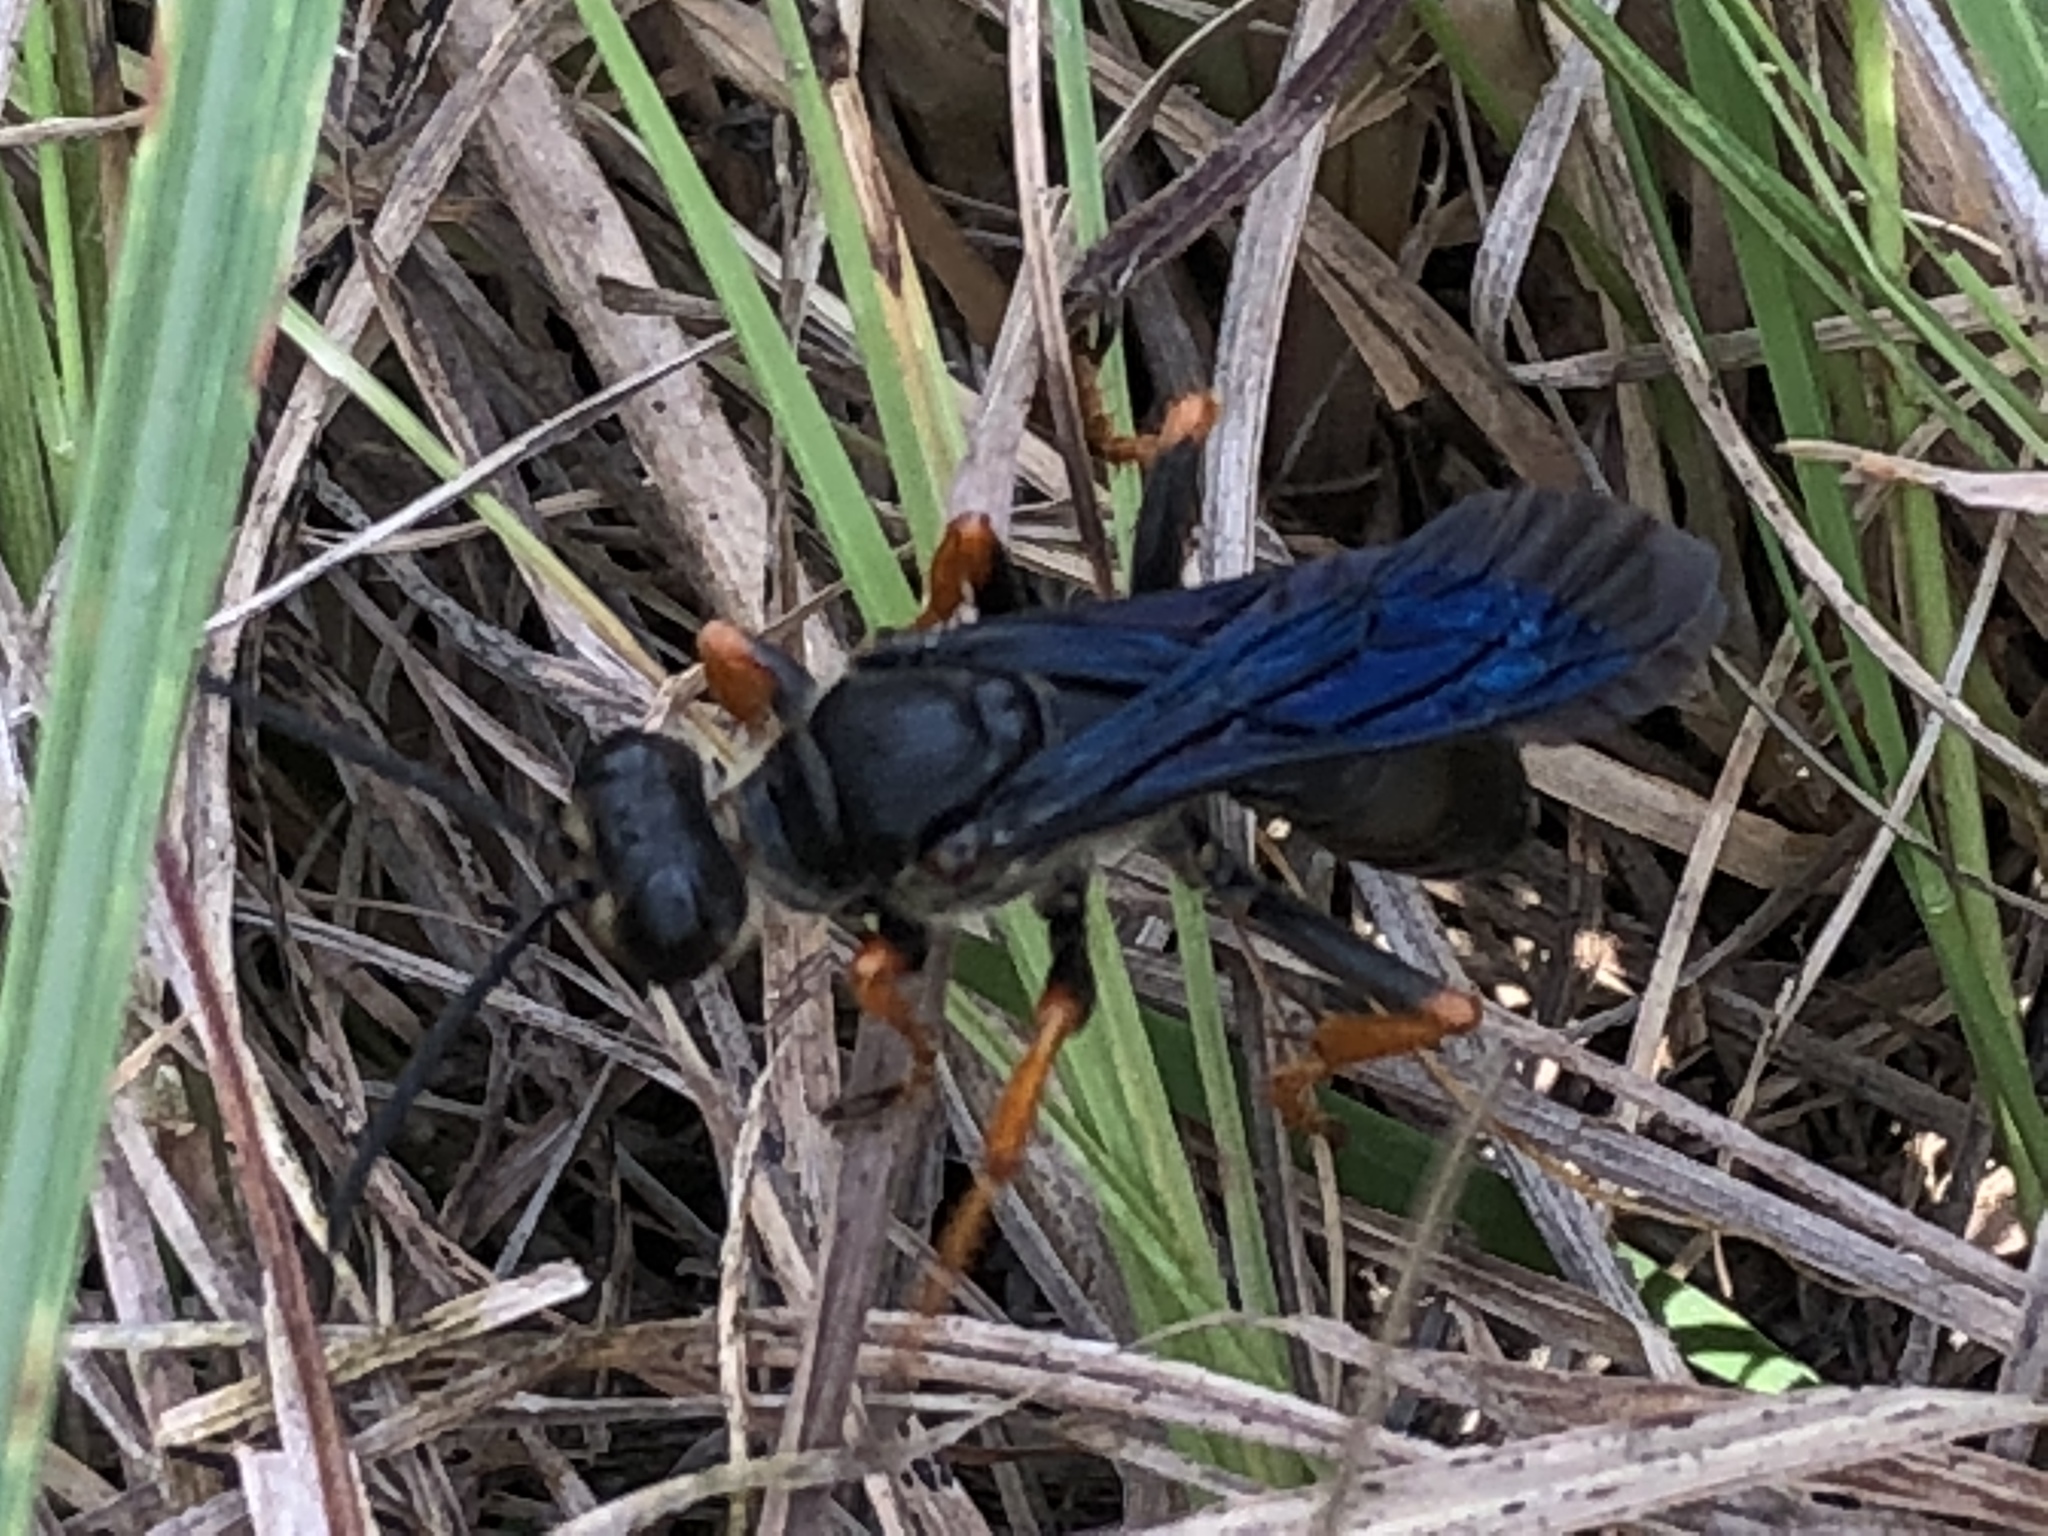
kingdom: Animalia
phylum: Arthropoda
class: Insecta
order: Hymenoptera
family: Sphecidae
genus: Sphex
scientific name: Sphex nudus
